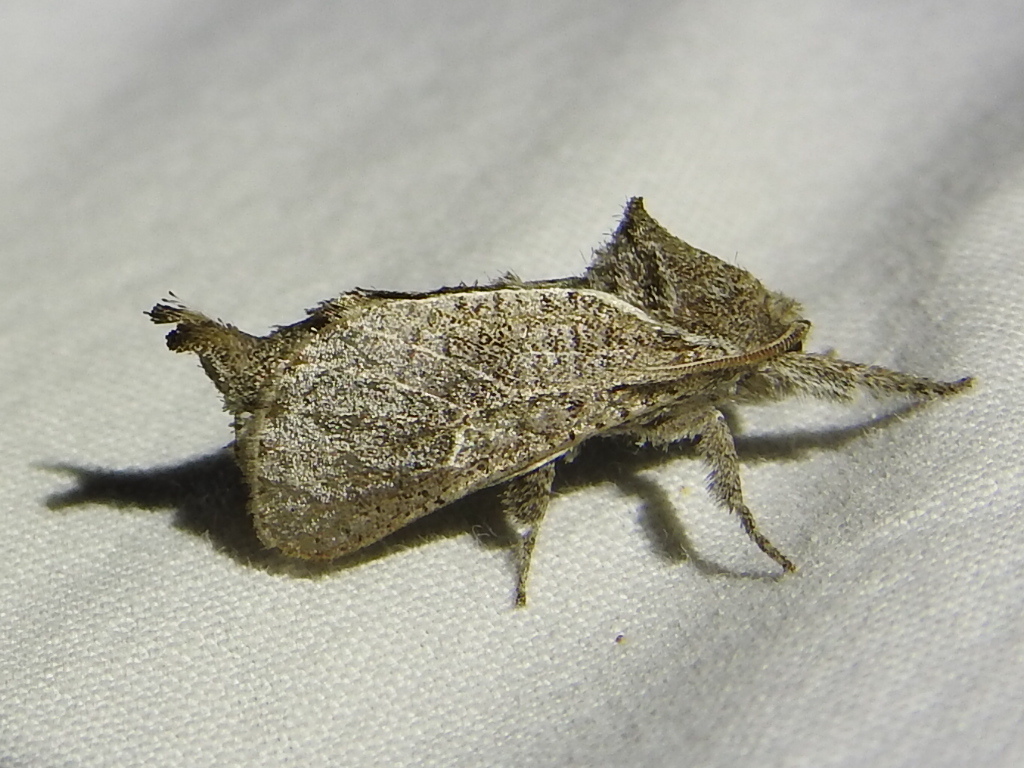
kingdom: Animalia
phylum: Arthropoda
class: Insecta
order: Lepidoptera
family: Cossidae
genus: Givira
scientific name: Givira anna
